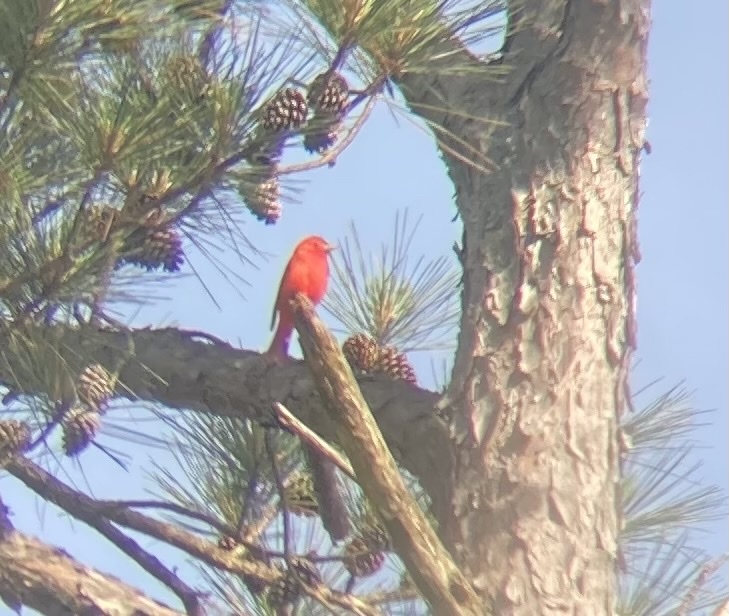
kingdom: Animalia
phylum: Chordata
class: Aves
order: Passeriformes
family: Cardinalidae
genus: Piranga
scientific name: Piranga rubra
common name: Summer tanager
